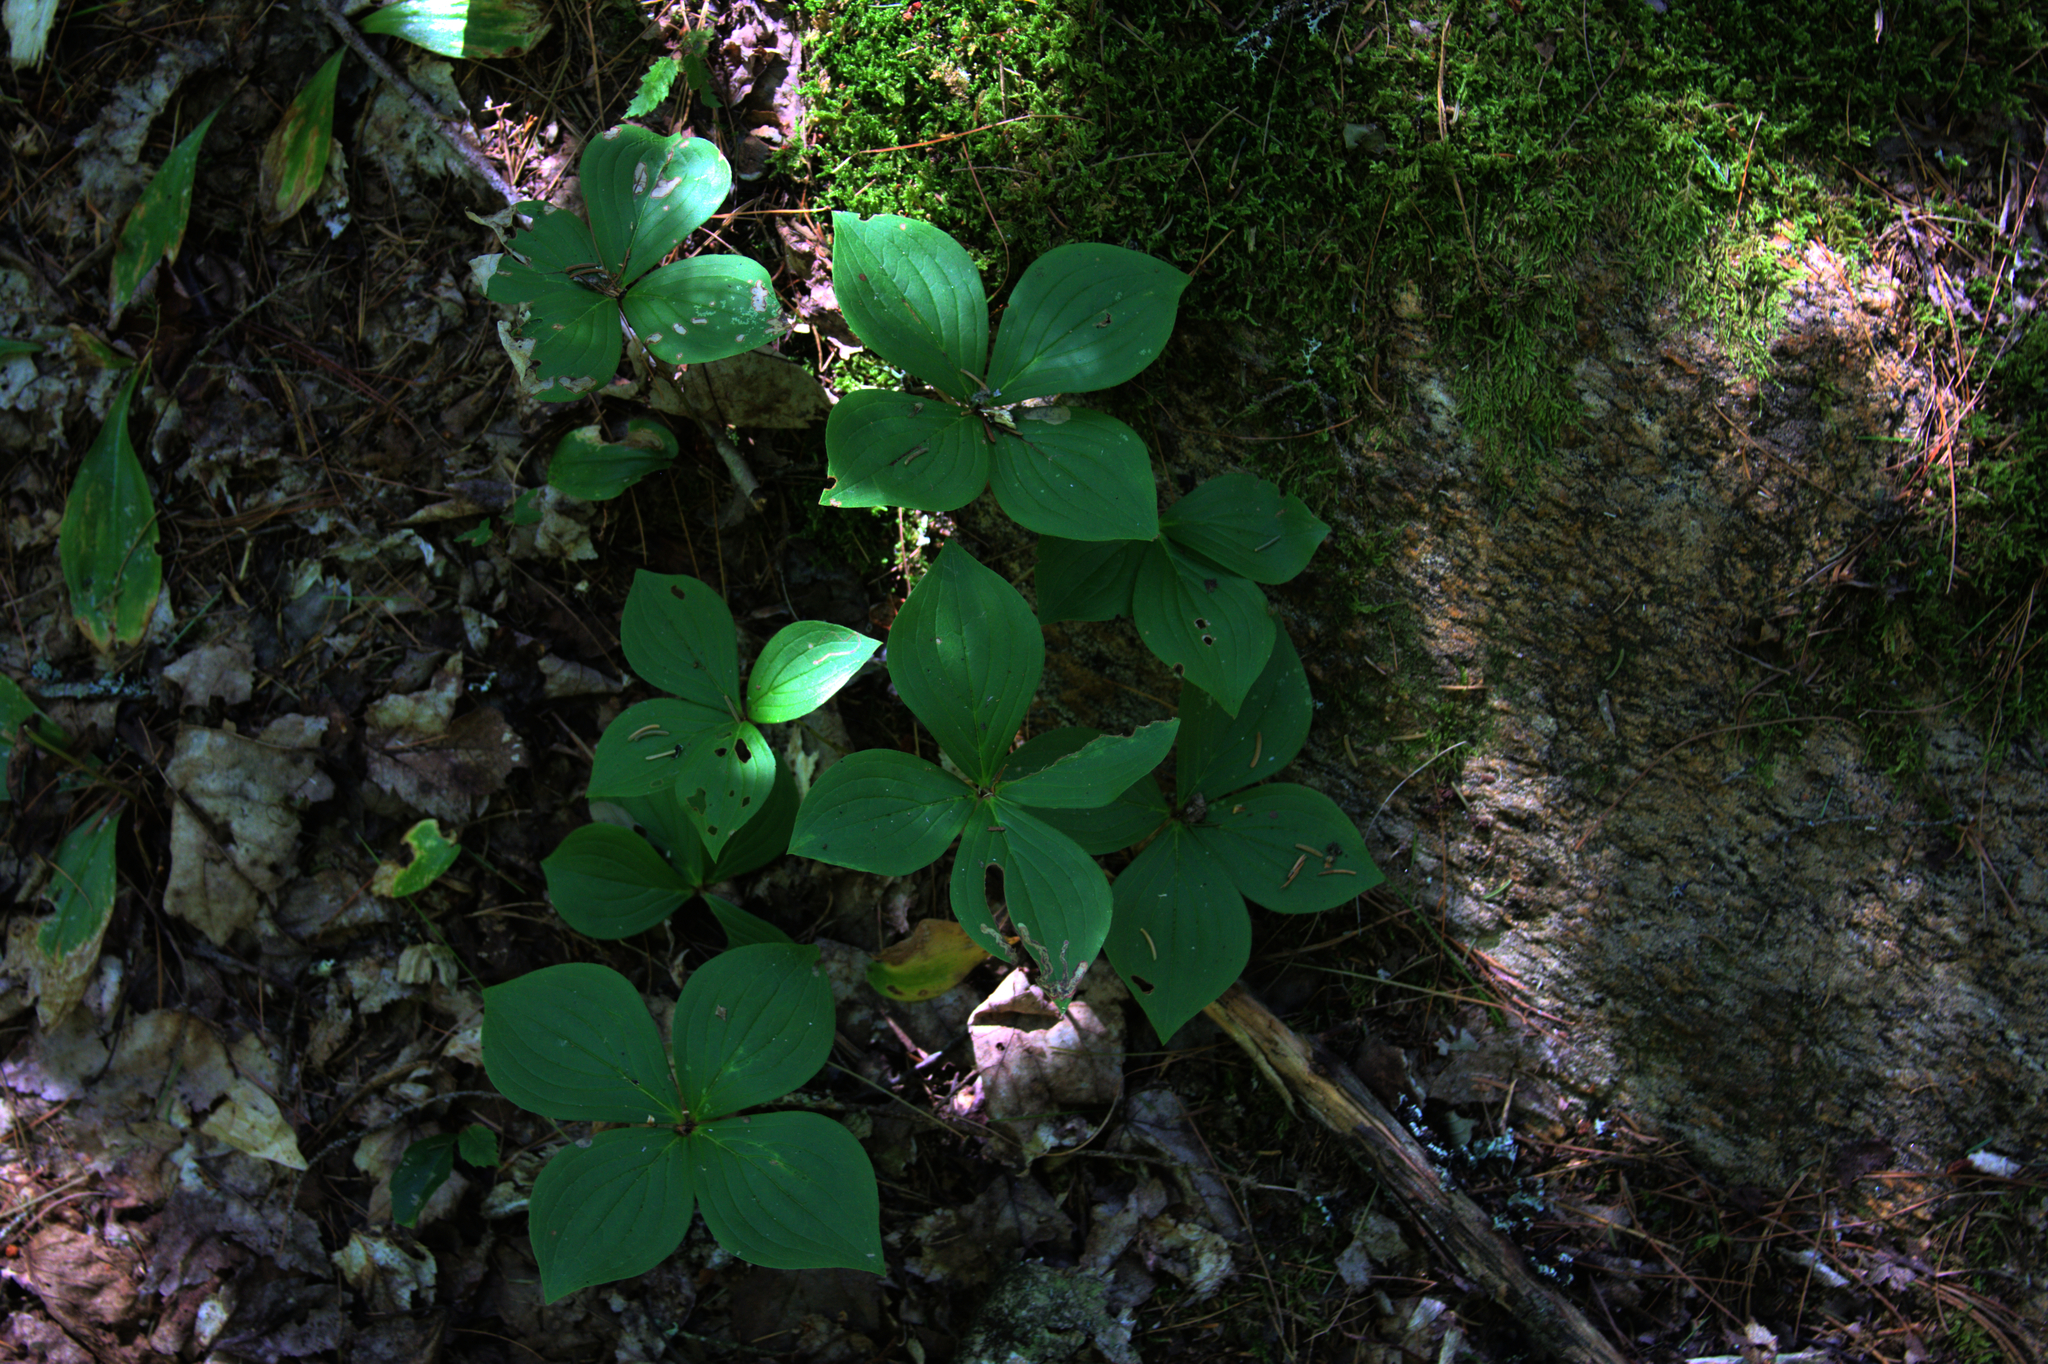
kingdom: Plantae
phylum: Tracheophyta
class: Magnoliopsida
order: Cornales
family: Cornaceae
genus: Cornus
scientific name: Cornus canadensis
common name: Creeping dogwood
